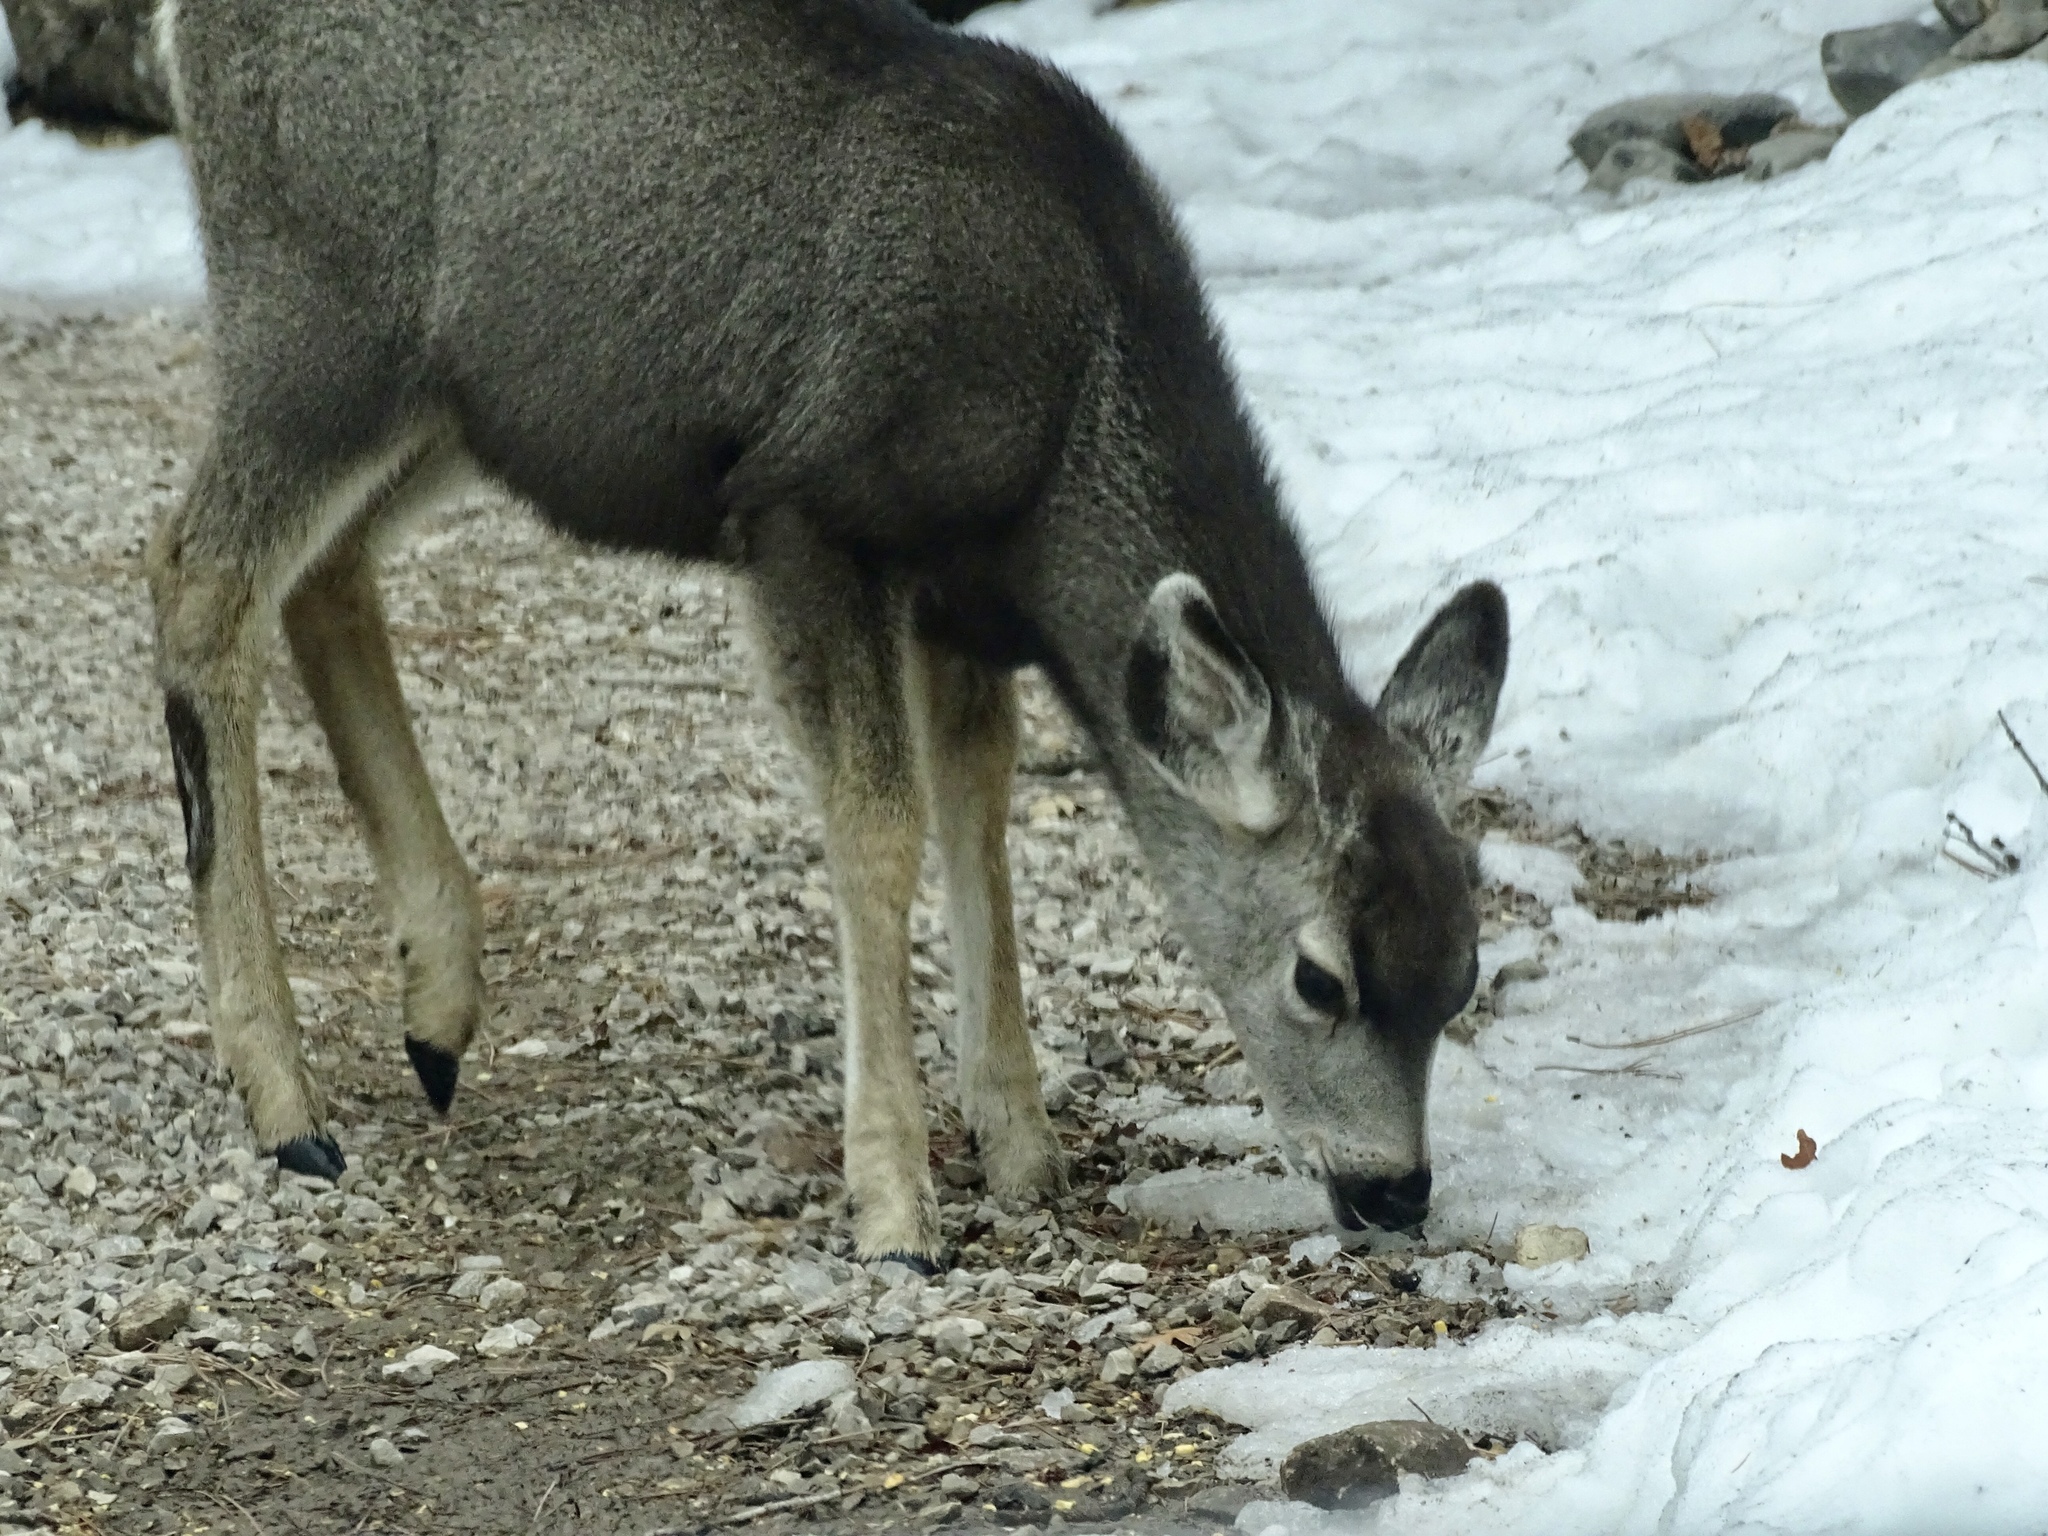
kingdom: Animalia
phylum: Chordata
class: Mammalia
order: Artiodactyla
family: Cervidae
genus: Odocoileus
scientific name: Odocoileus hemionus
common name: Mule deer
